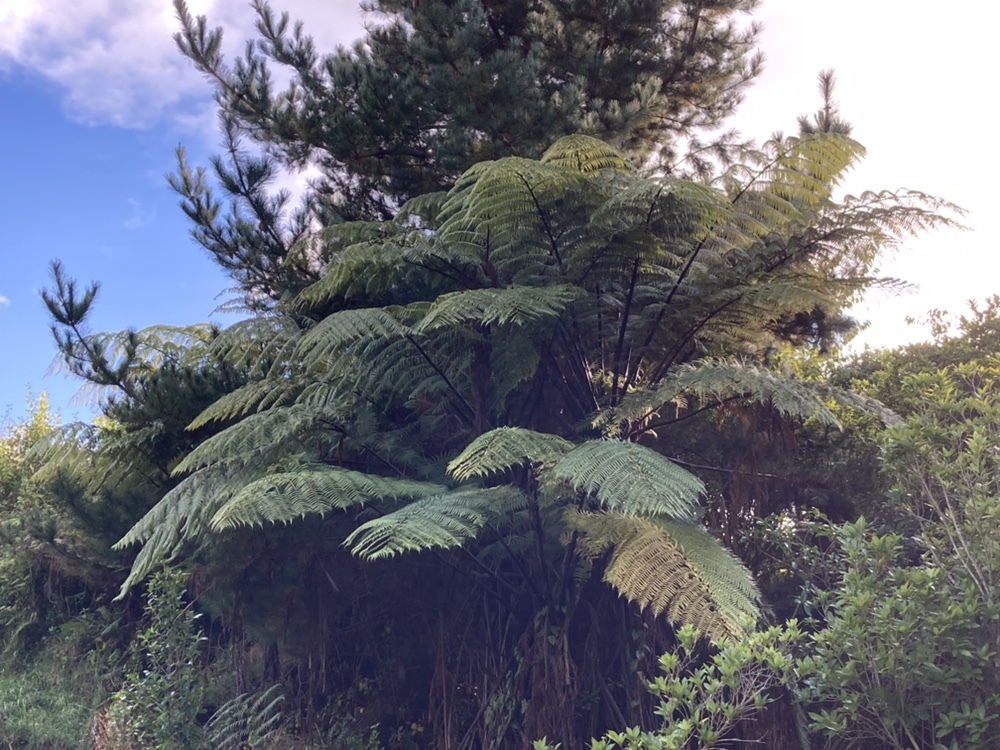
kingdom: Plantae
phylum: Tracheophyta
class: Polypodiopsida
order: Cyatheales
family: Cyatheaceae
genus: Sphaeropteris
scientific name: Sphaeropteris medullaris
